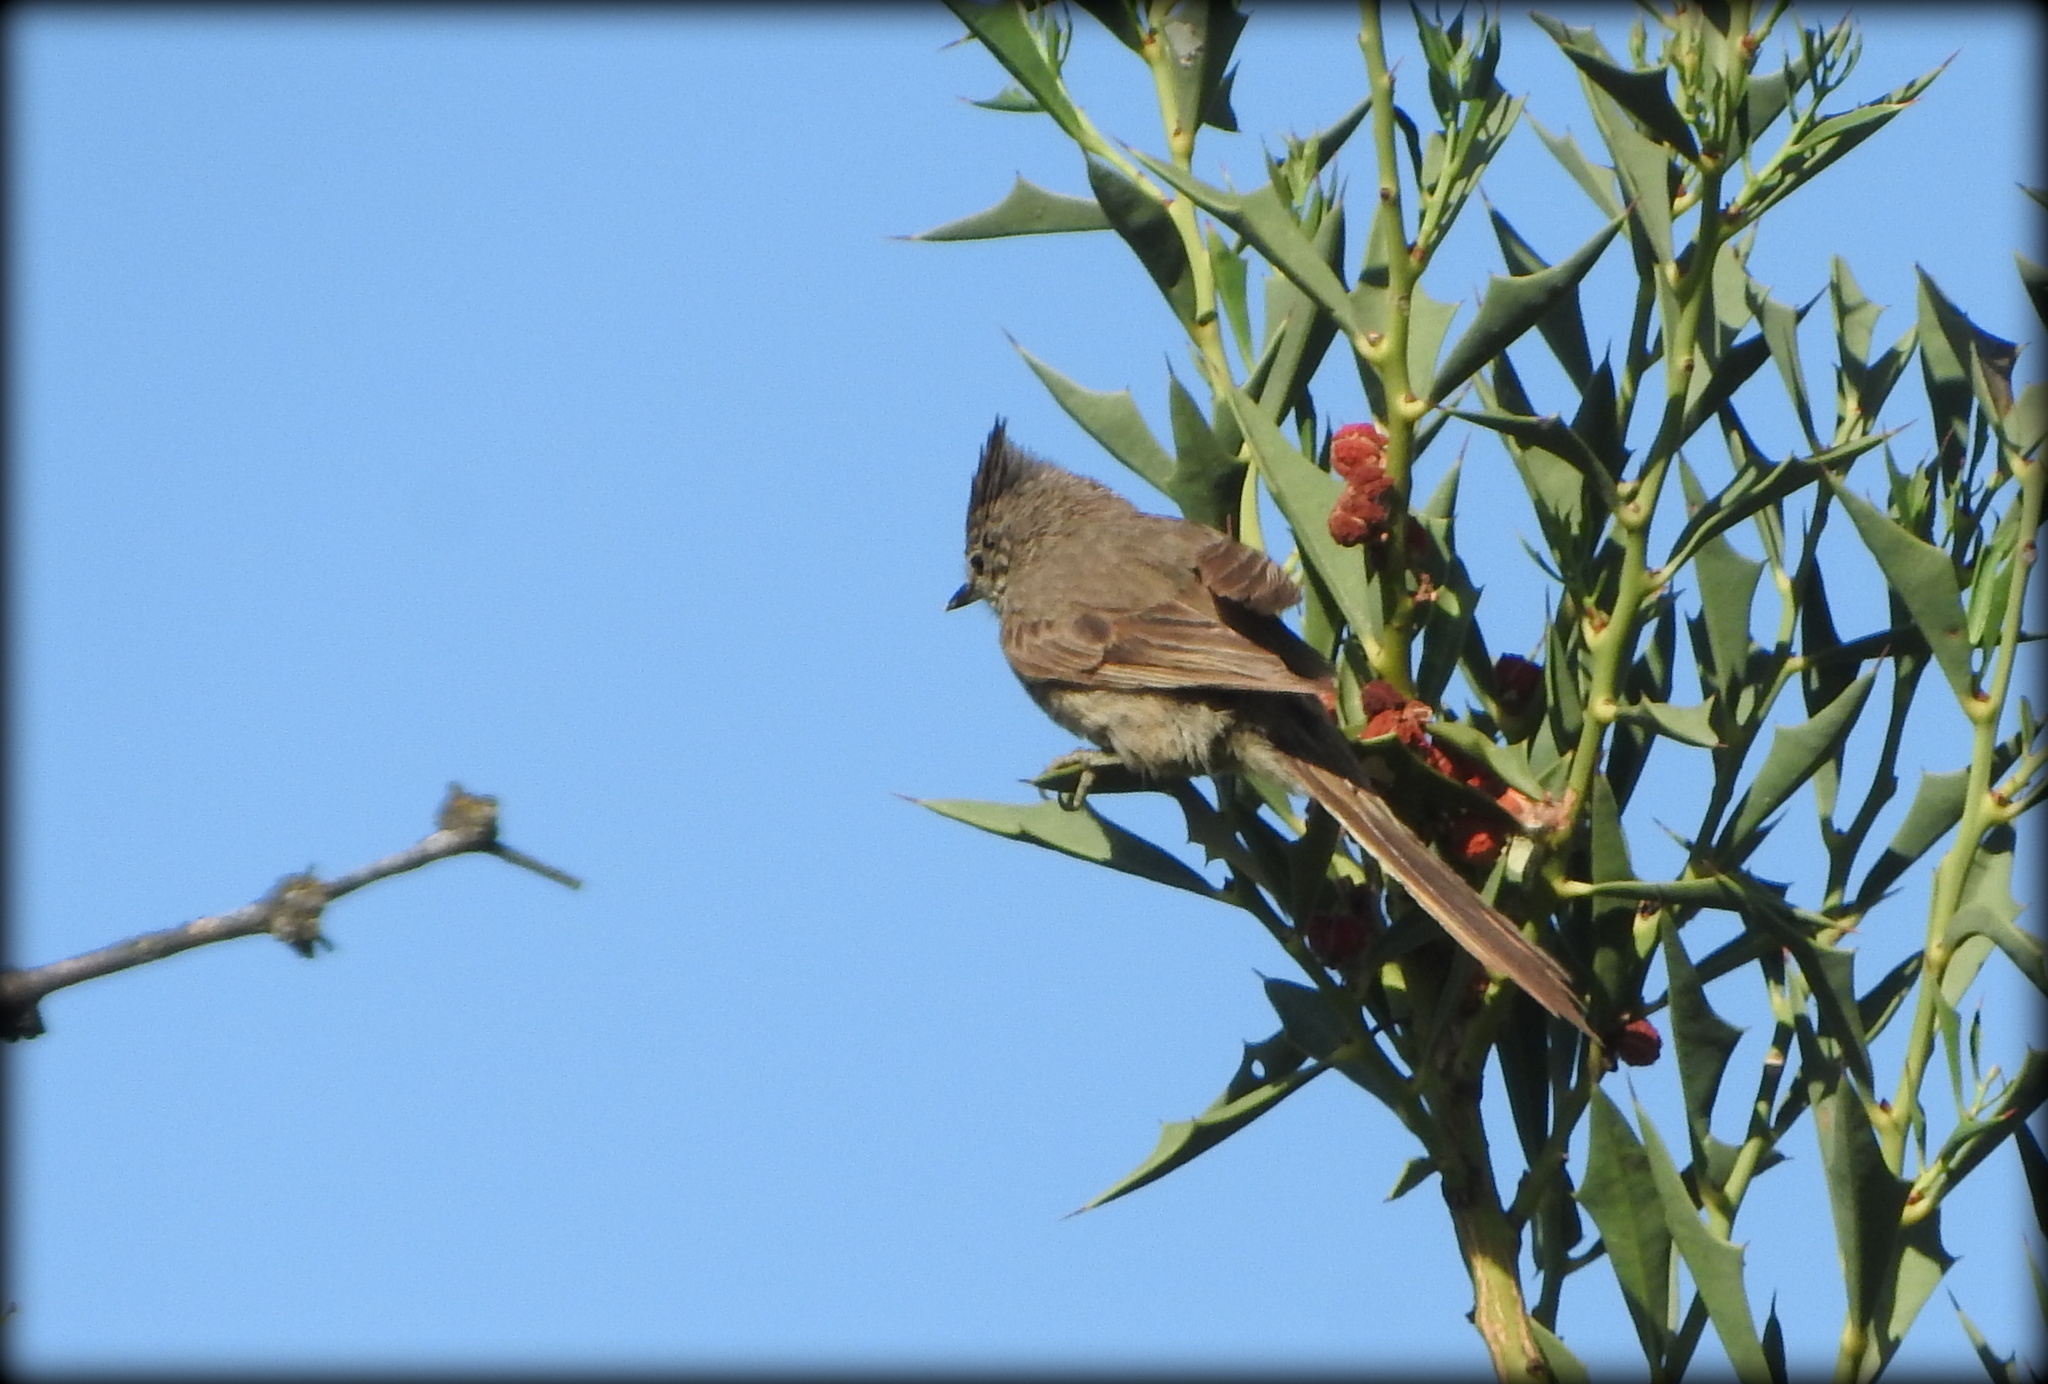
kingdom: Animalia
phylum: Chordata
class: Aves
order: Passeriformes
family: Furnariidae
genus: Leptasthenura
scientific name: Leptasthenura platensis
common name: Tufted tit-spinetail
